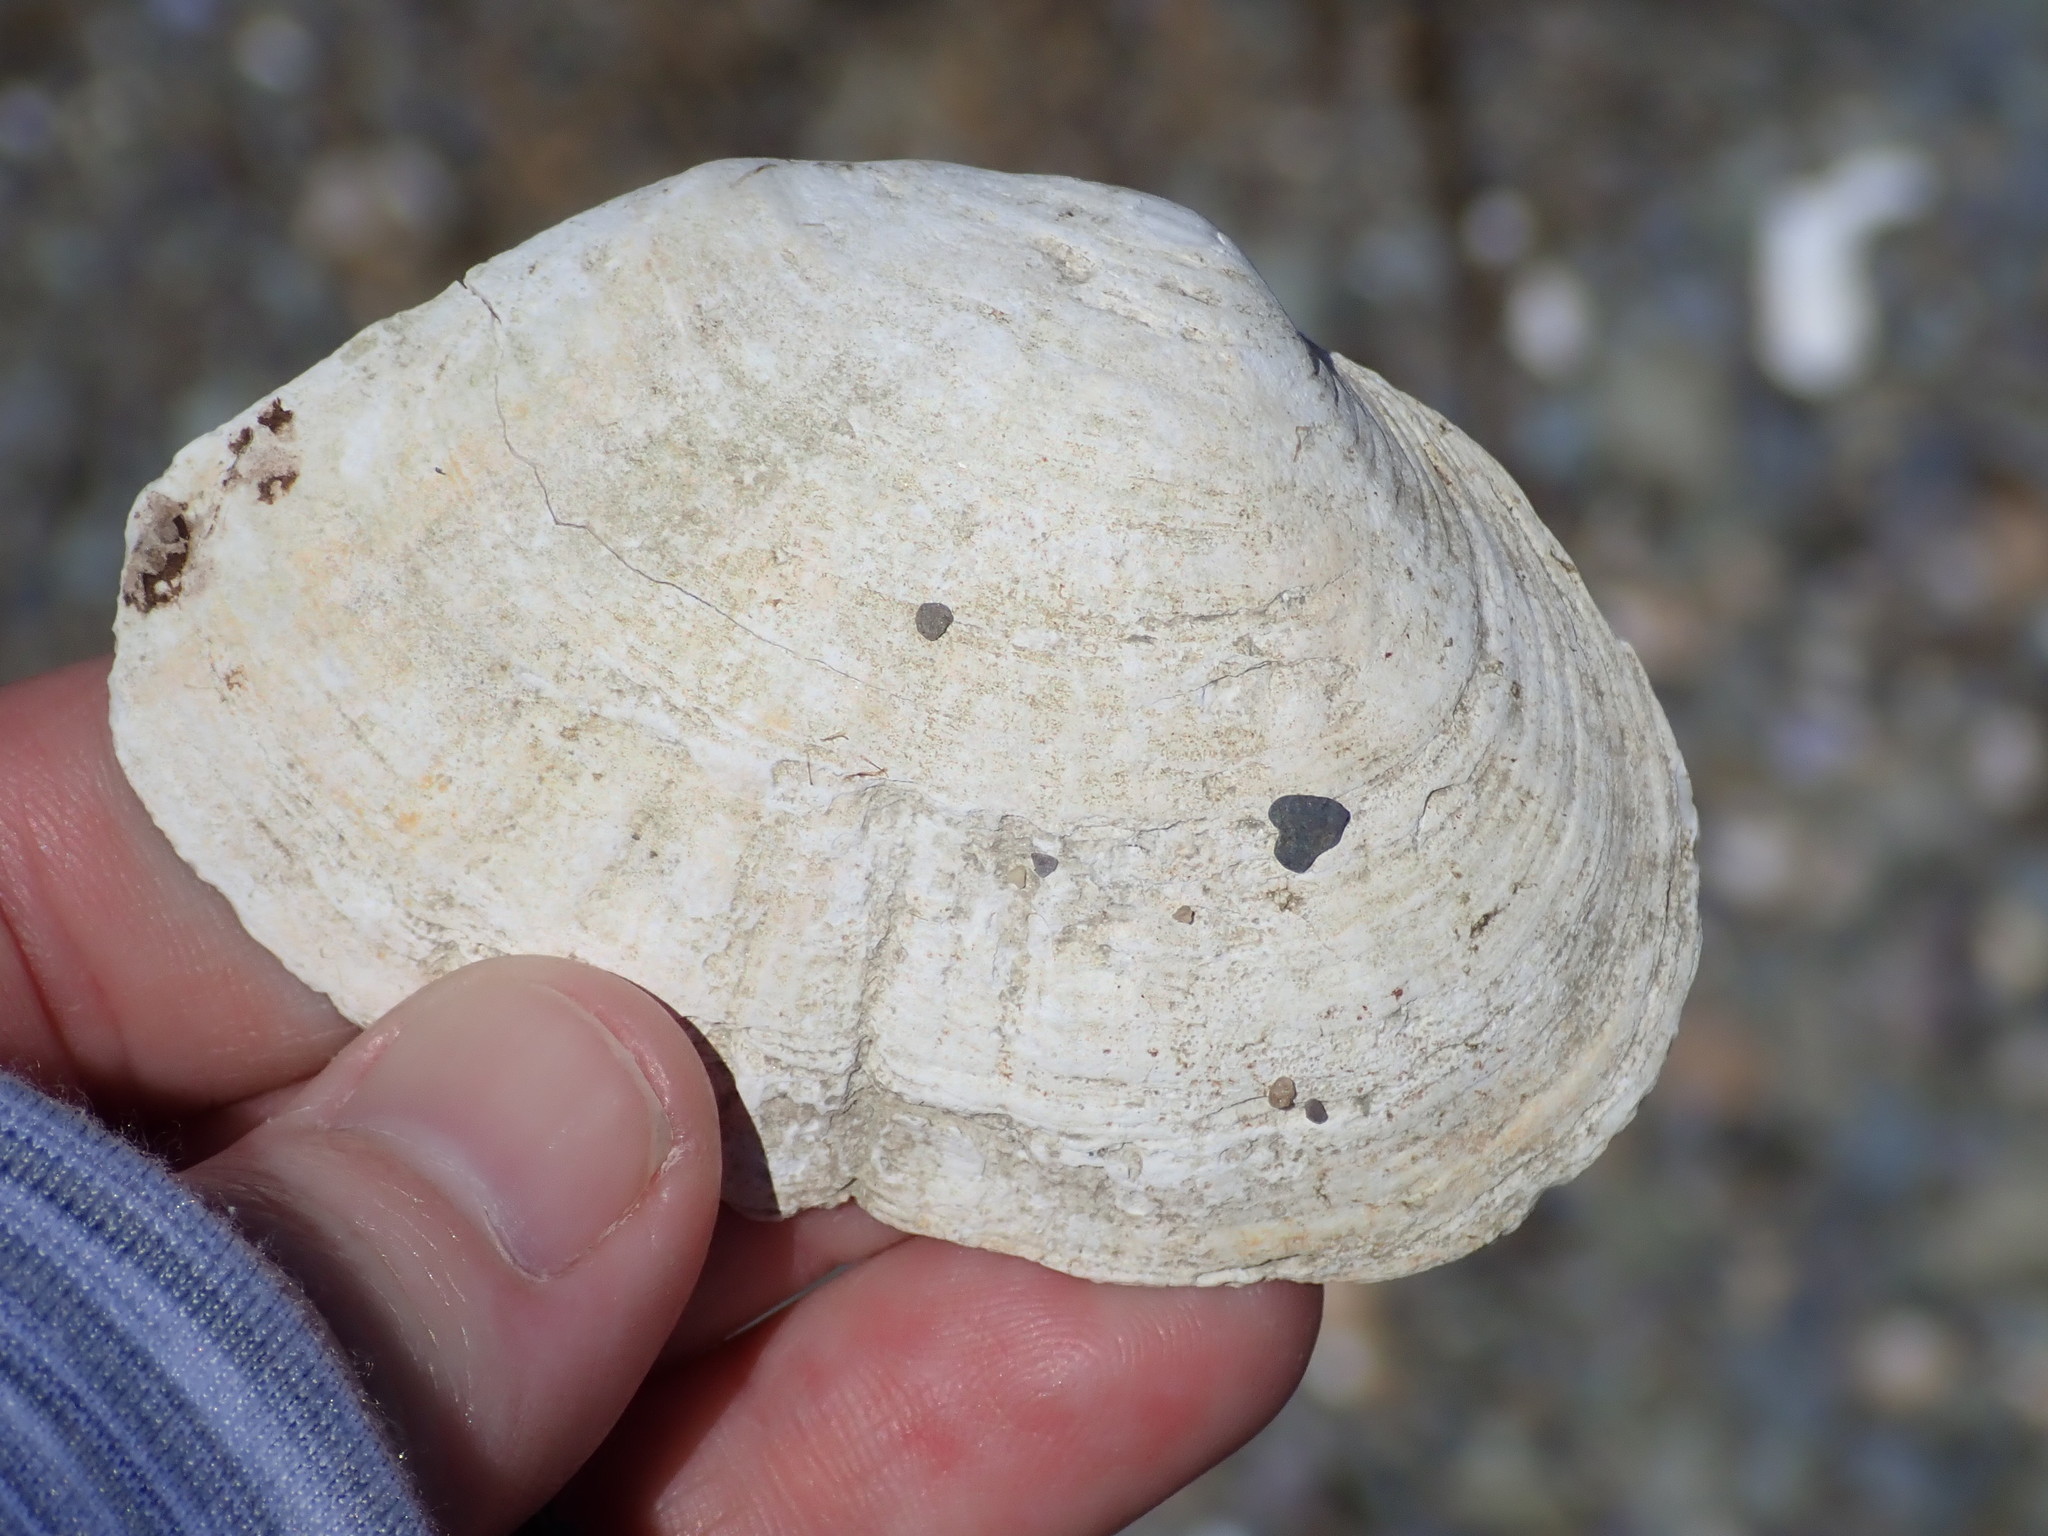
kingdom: Animalia
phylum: Mollusca
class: Bivalvia
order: Myida
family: Myidae
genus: Mya
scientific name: Mya arenaria
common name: Soft-shelled clam
